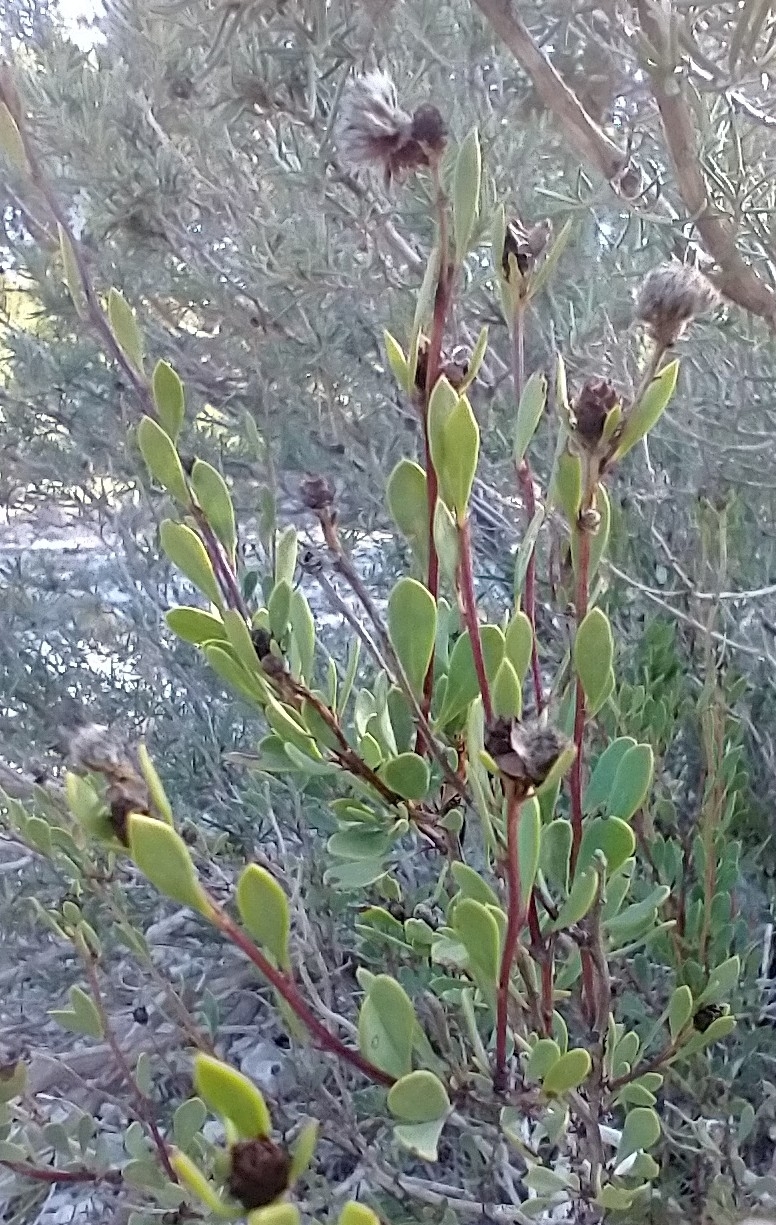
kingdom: Plantae
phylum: Tracheophyta
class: Magnoliopsida
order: Lamiales
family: Plantaginaceae
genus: Globularia
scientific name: Globularia alypum
